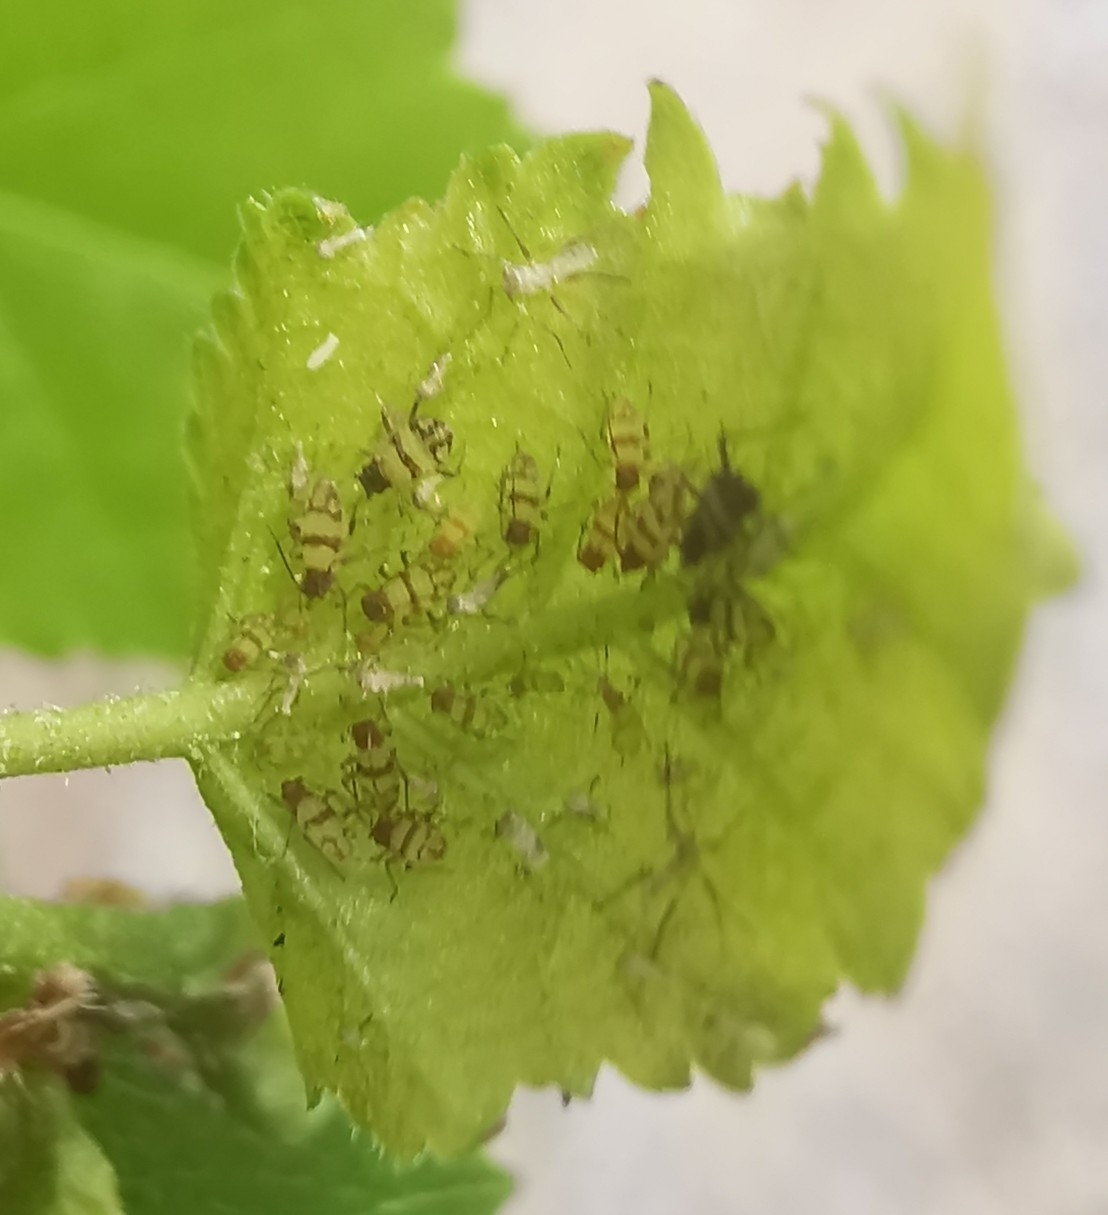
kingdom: Animalia
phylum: Arthropoda
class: Insecta
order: Hemiptera
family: Aphididae
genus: Callipterinella
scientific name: Callipterinella tuberculata
